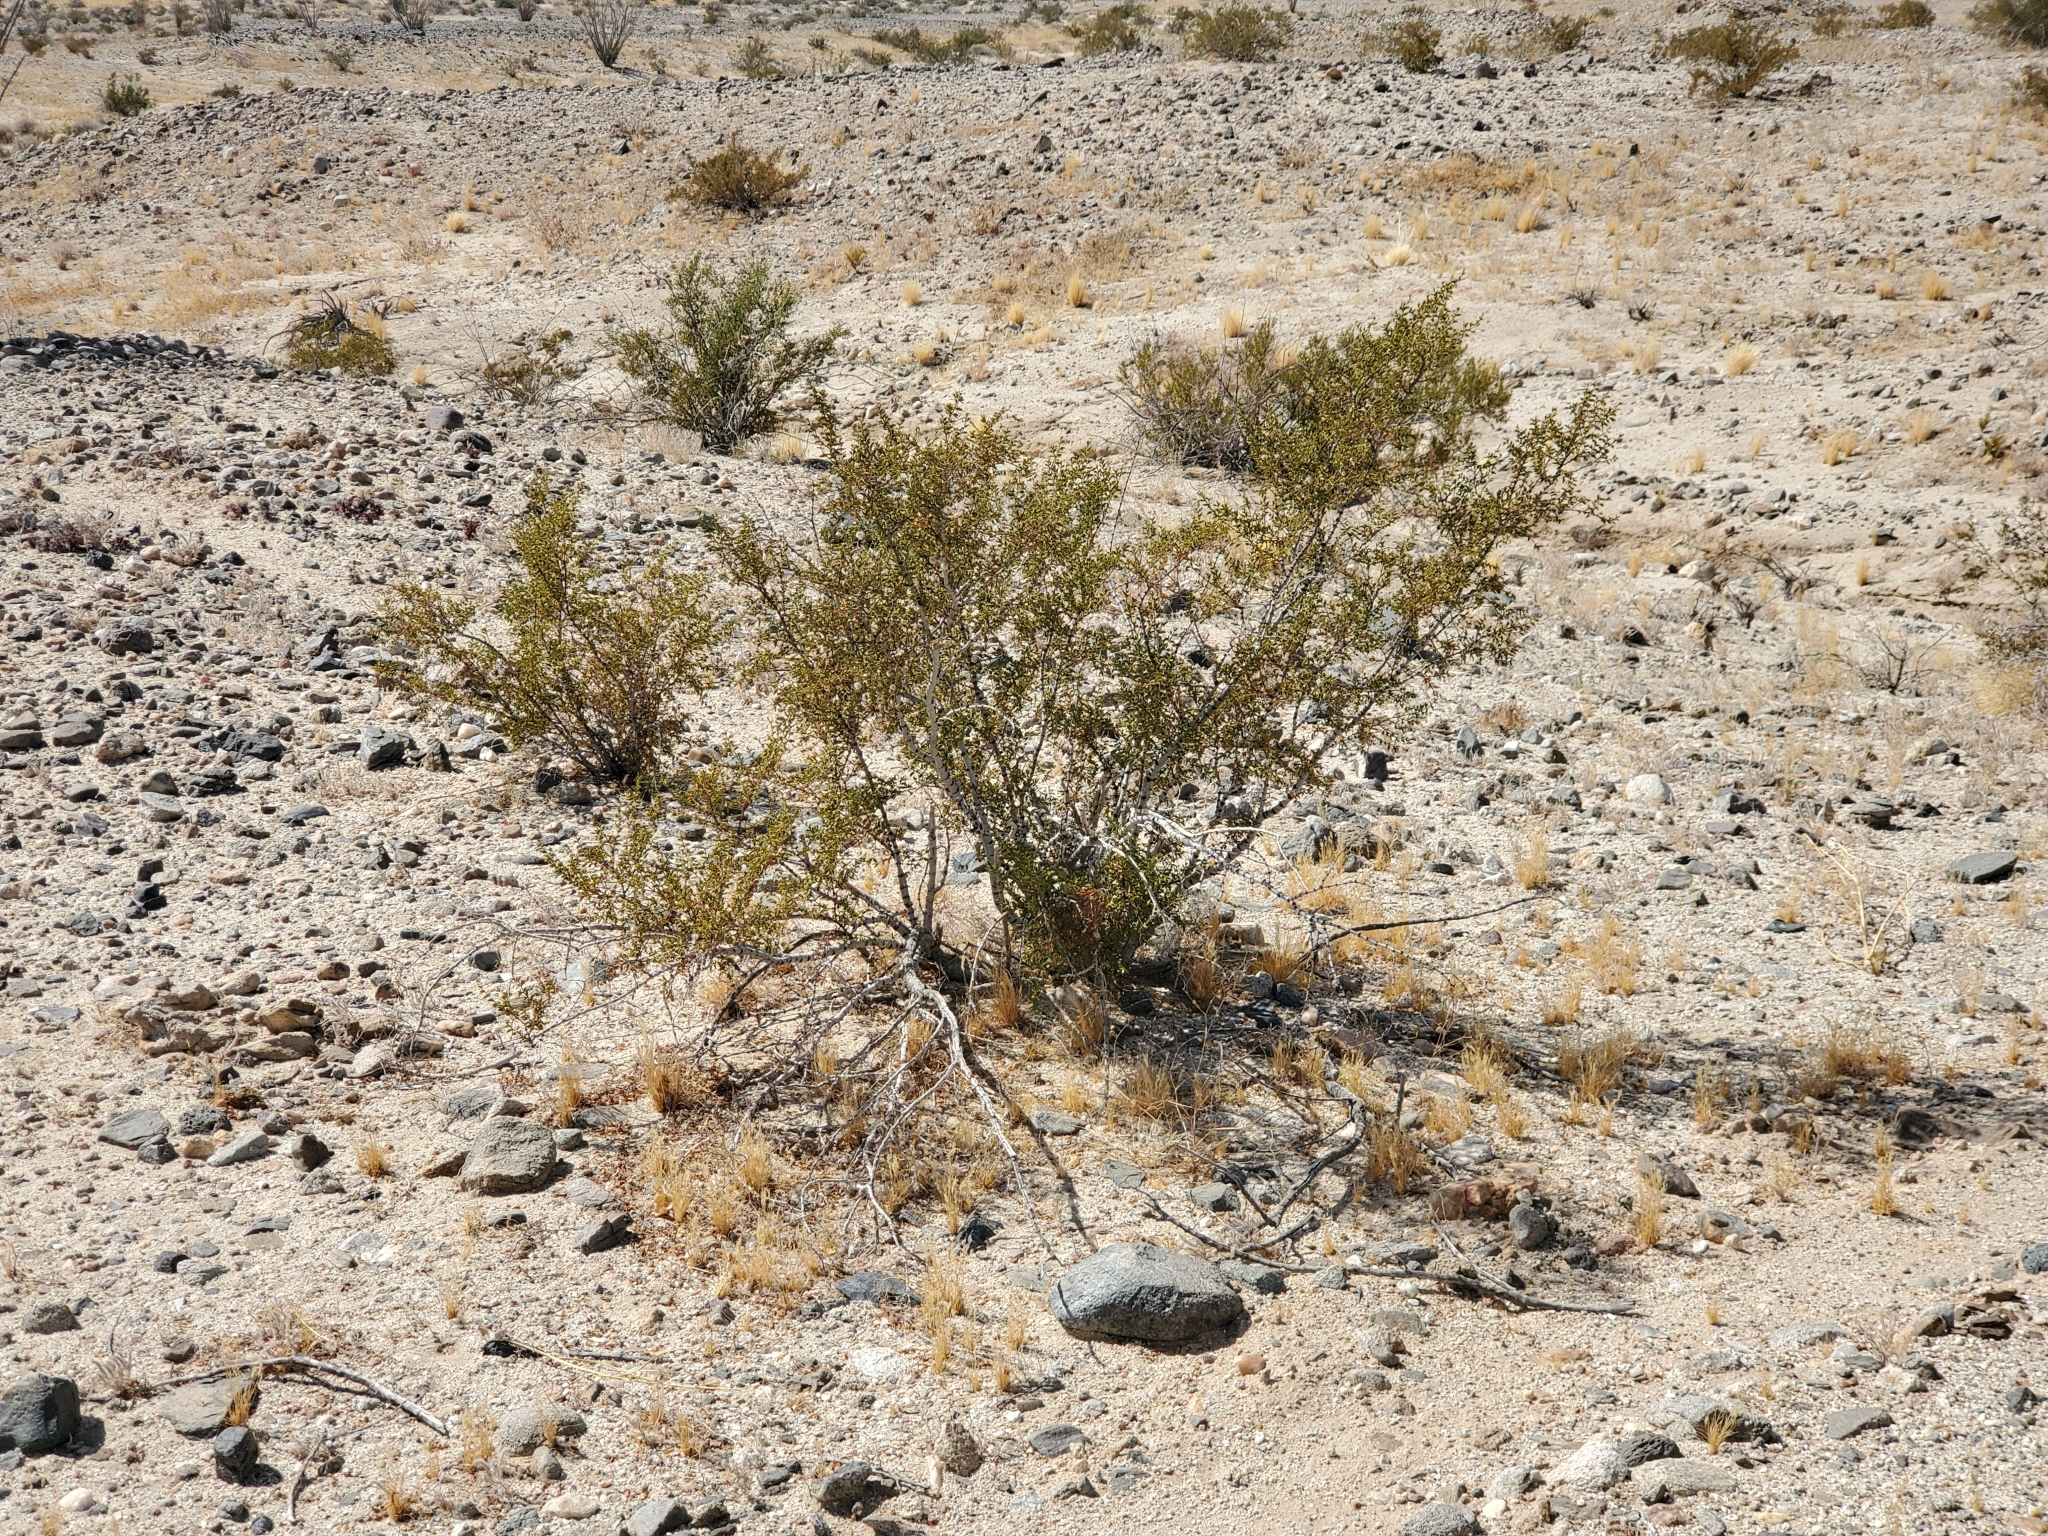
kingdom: Plantae
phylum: Tracheophyta
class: Magnoliopsida
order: Zygophyllales
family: Zygophyllaceae
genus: Larrea
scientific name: Larrea tridentata
